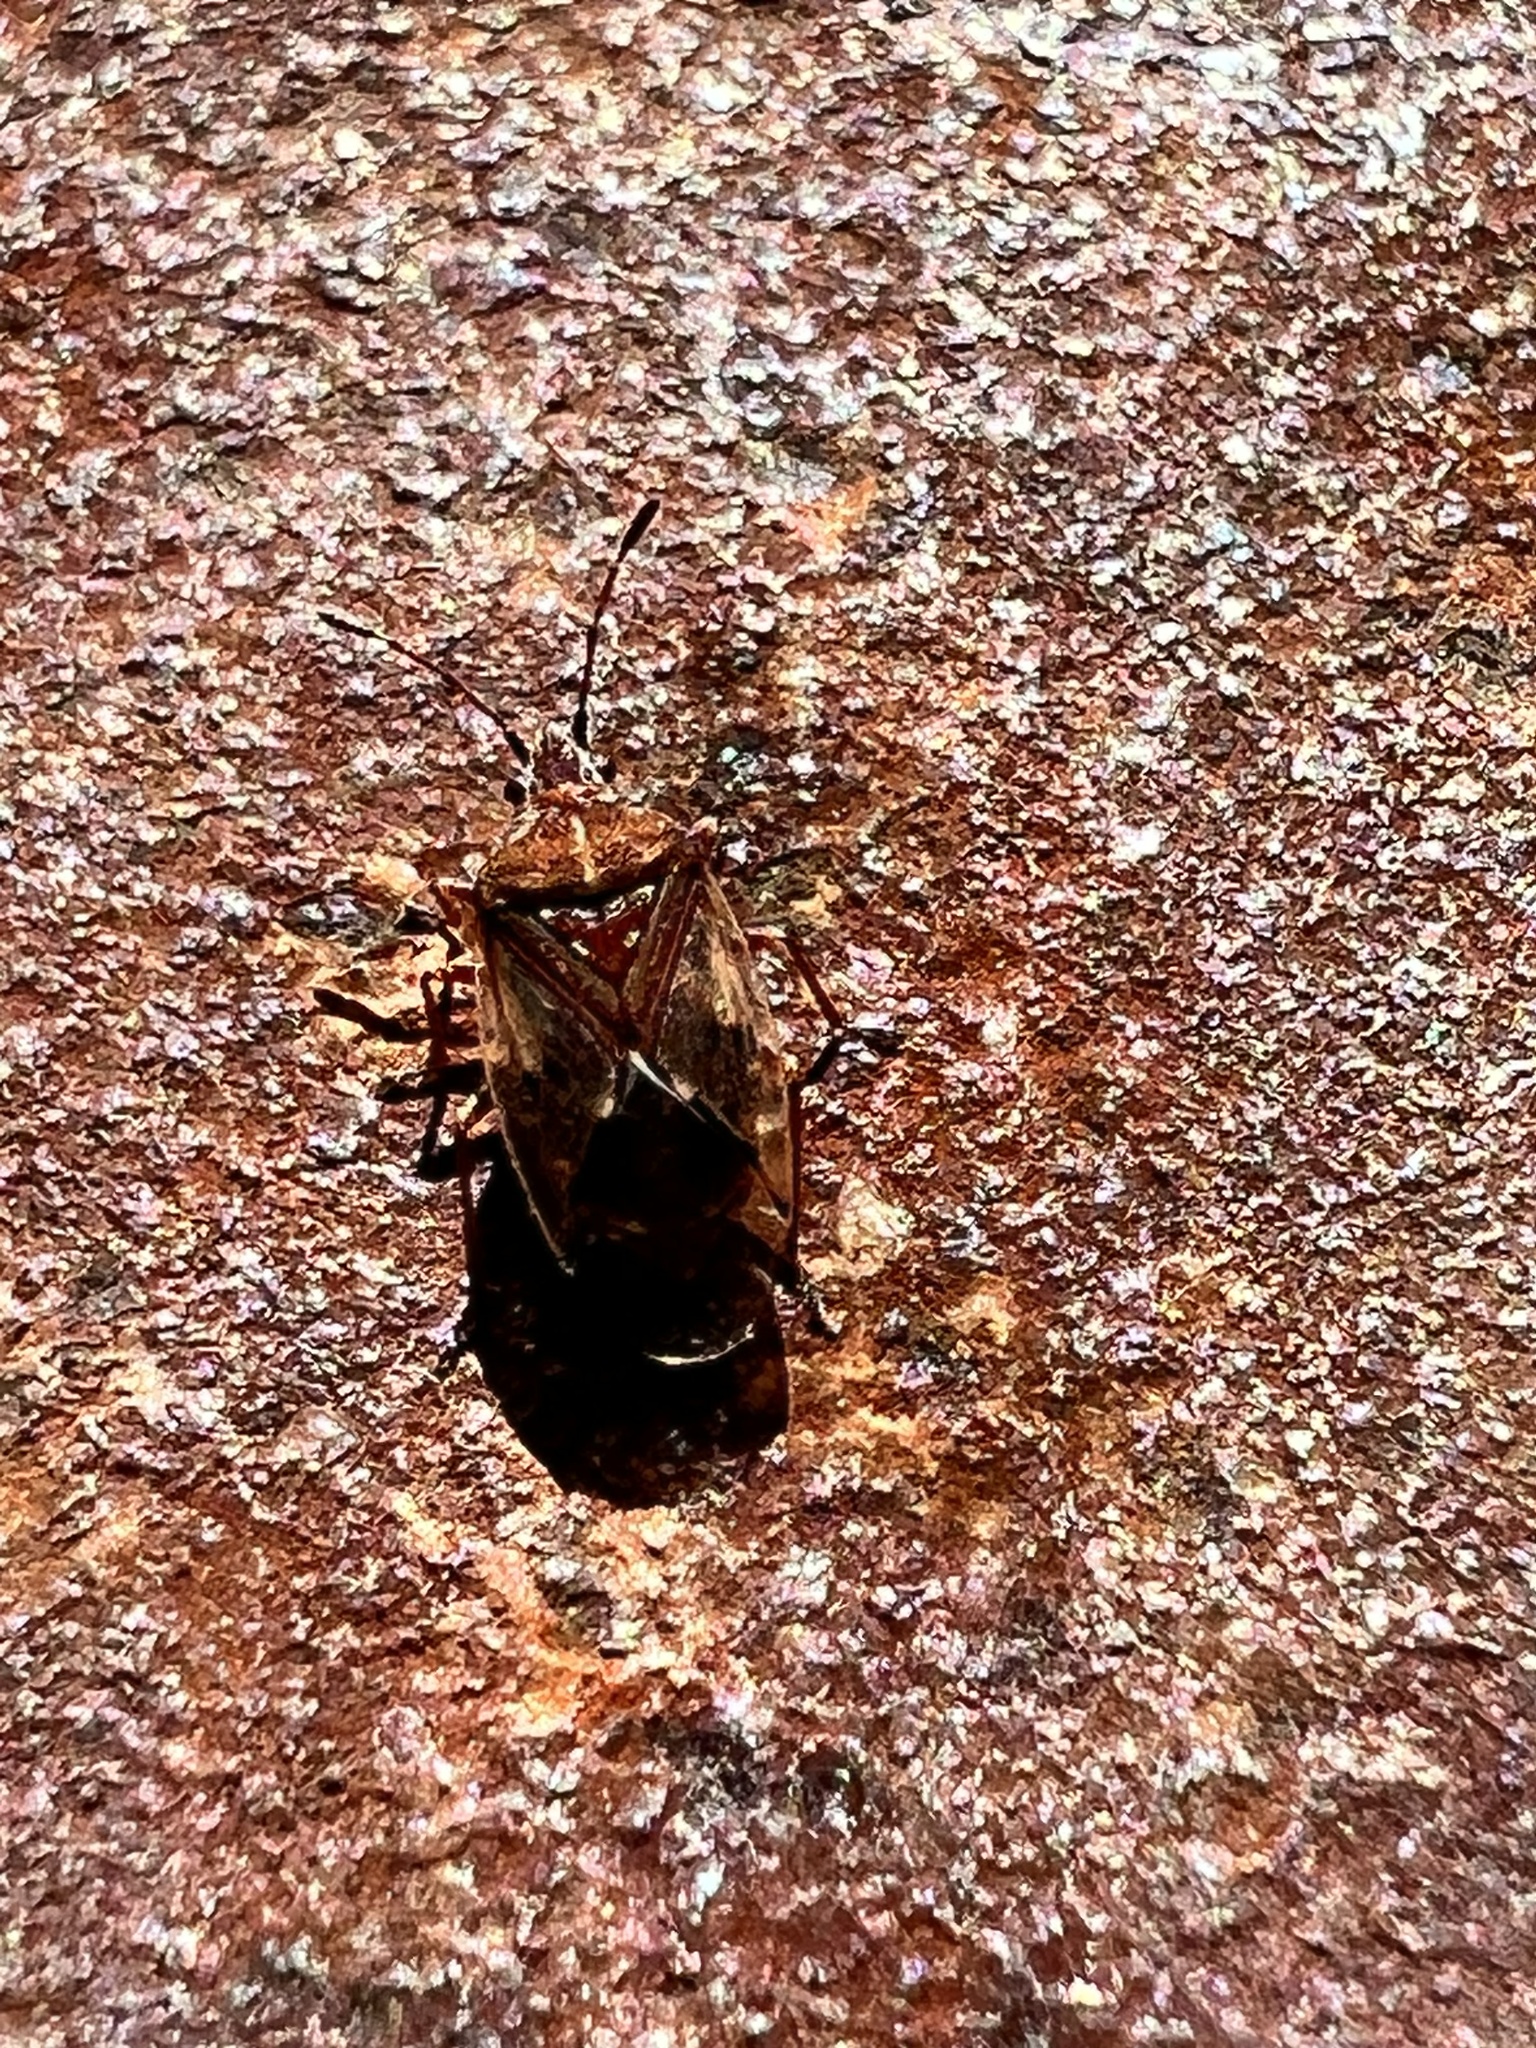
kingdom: Animalia
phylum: Arthropoda
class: Insecta
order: Hemiptera
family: Lygaeidae
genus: Kleidocerys
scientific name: Kleidocerys resedae
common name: Birch catkin bug
